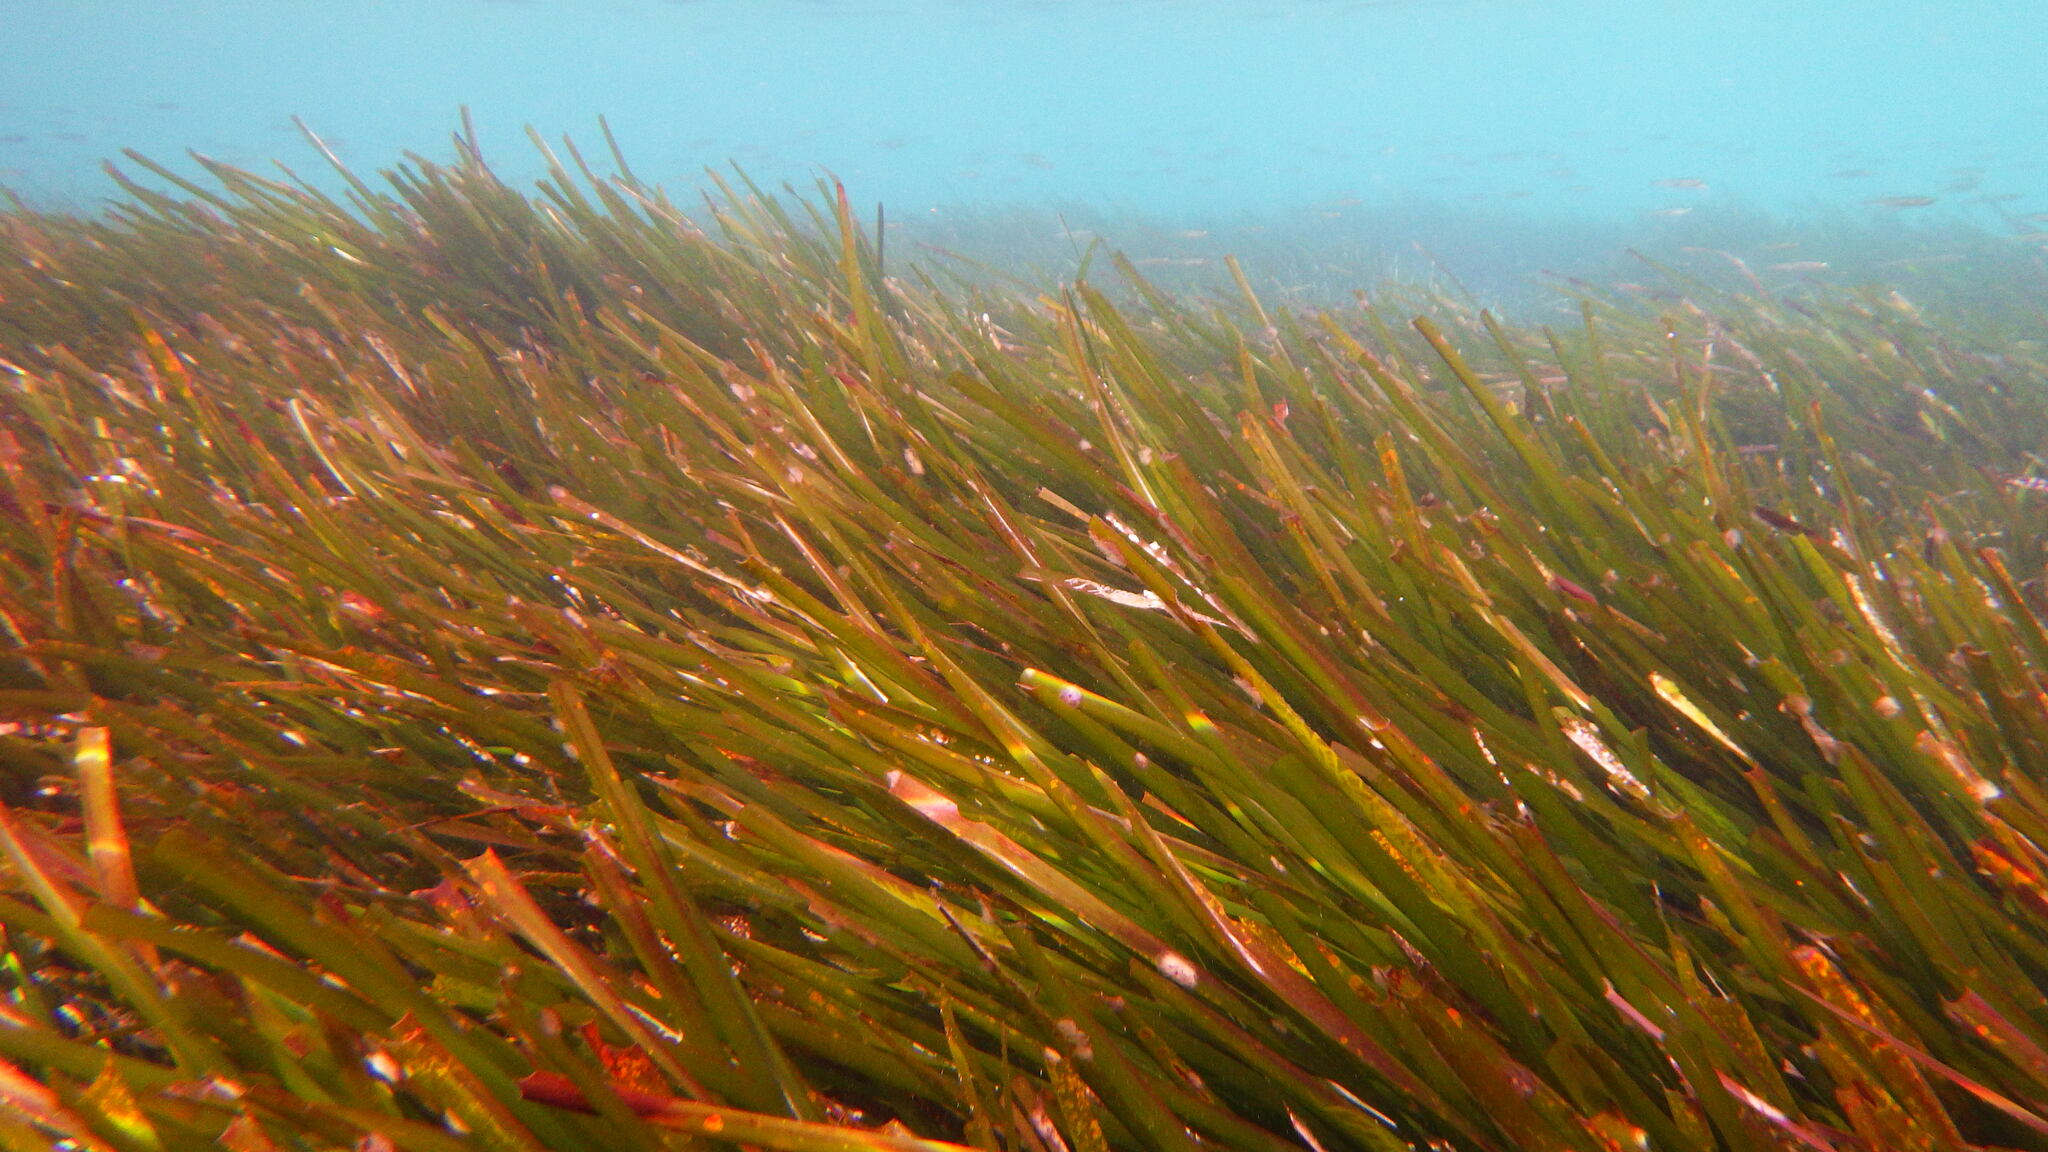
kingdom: Plantae
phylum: Tracheophyta
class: Liliopsida
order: Alismatales
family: Posidoniaceae
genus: Posidonia
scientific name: Posidonia oceanica
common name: Mediterranean tapeweed
